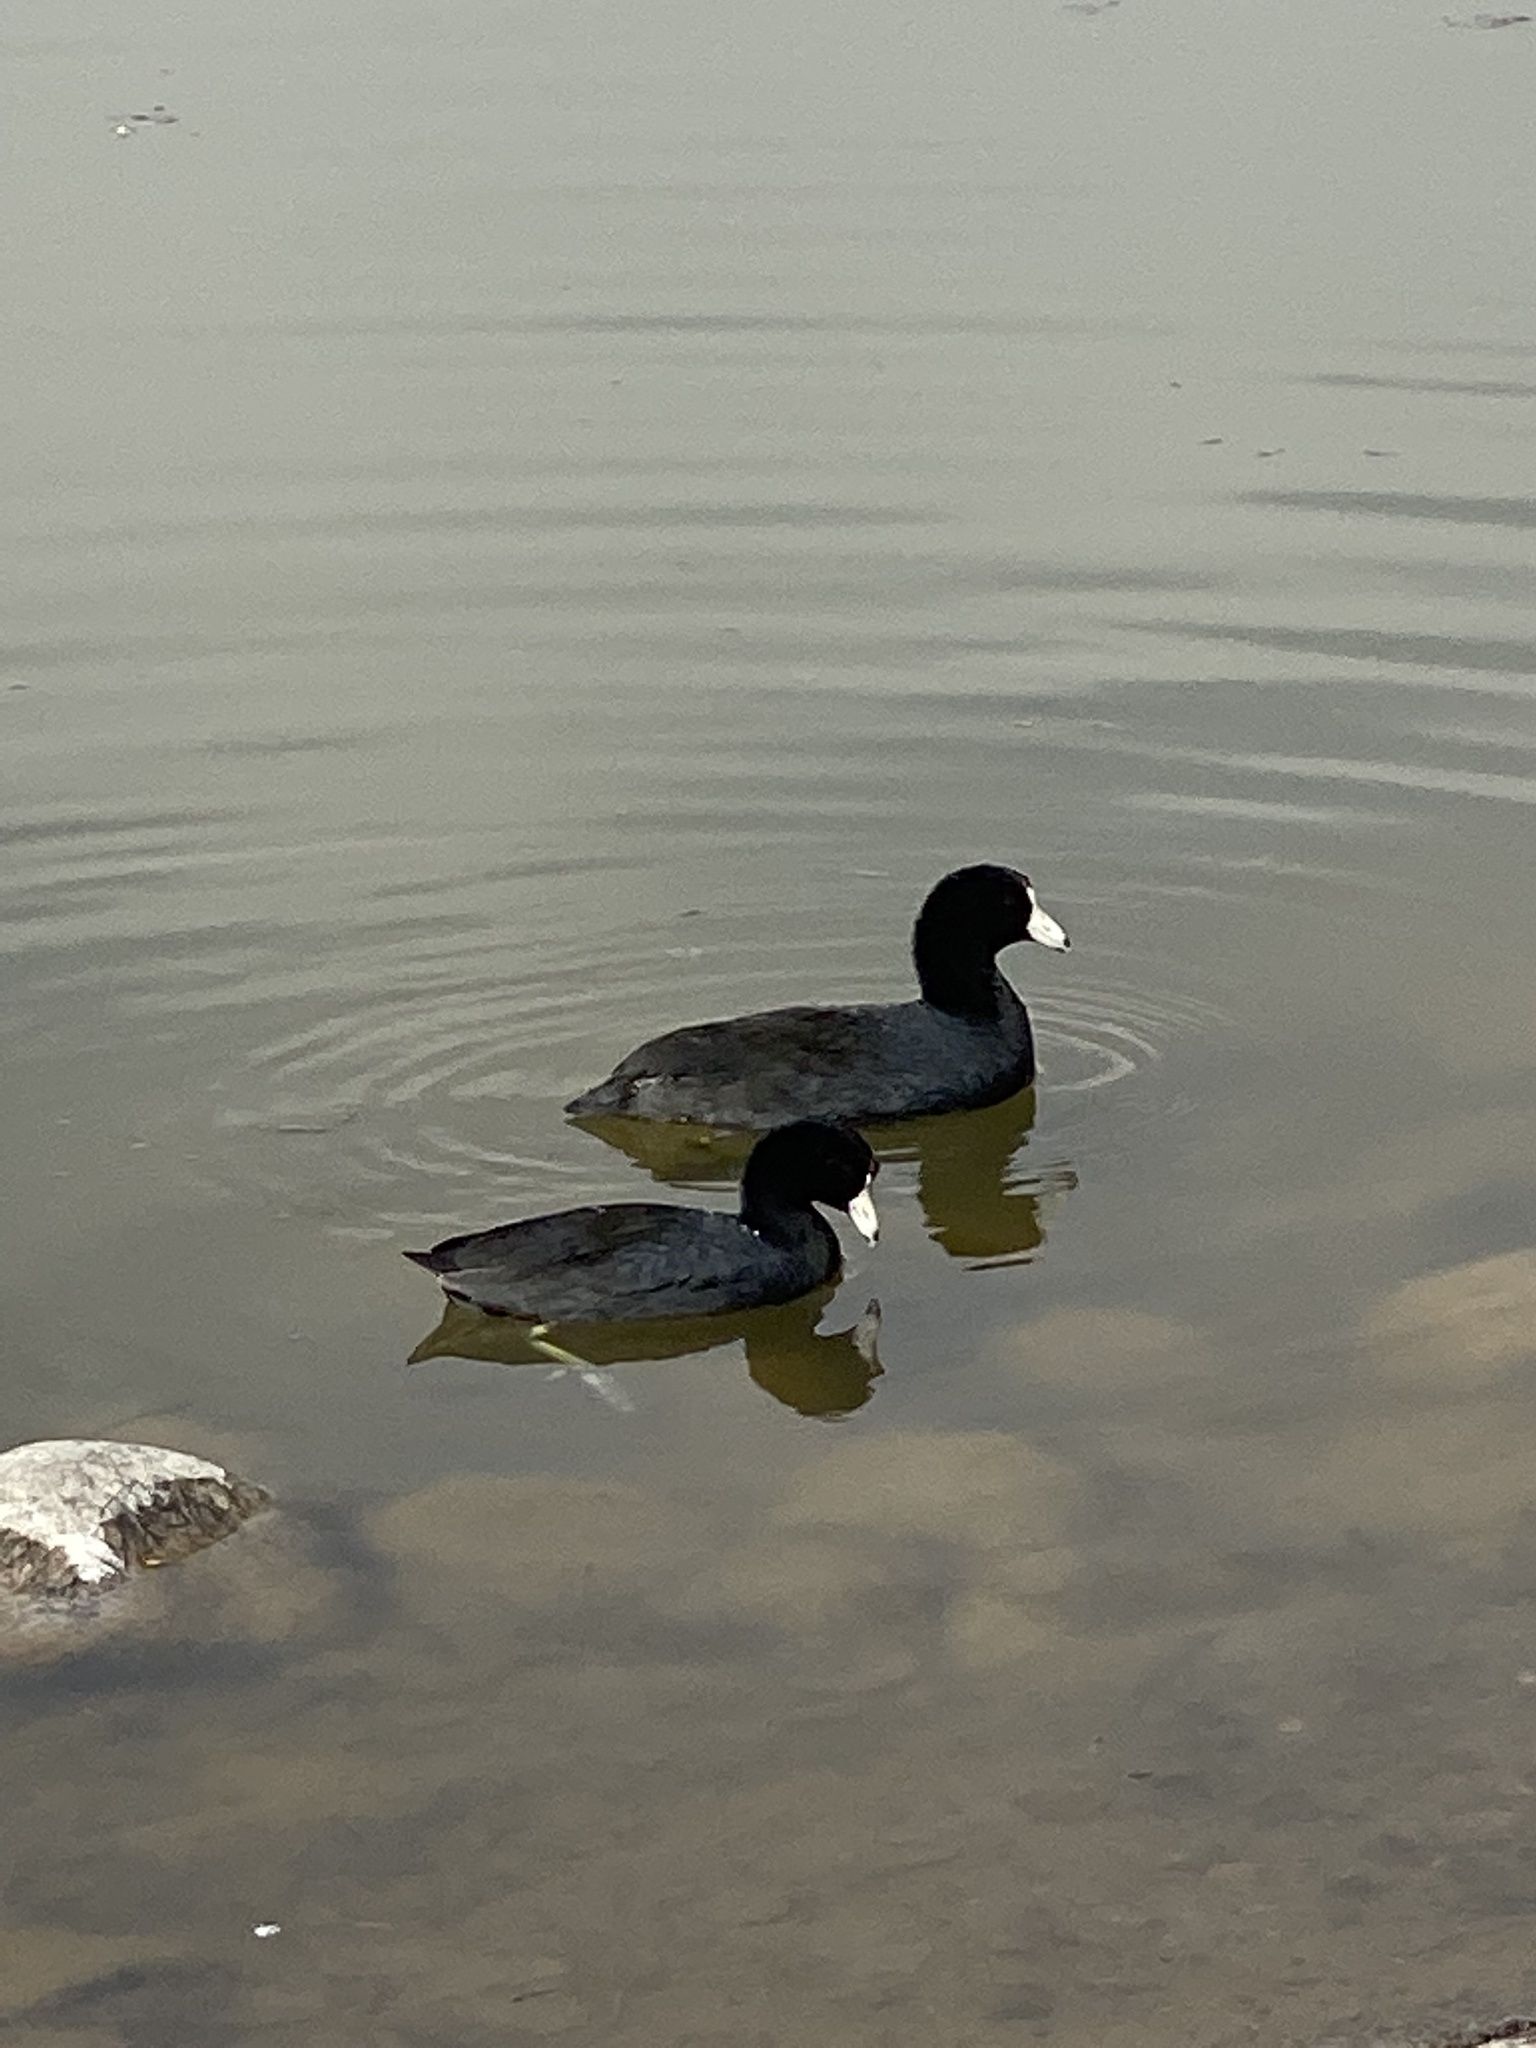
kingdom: Animalia
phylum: Chordata
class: Aves
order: Gruiformes
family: Rallidae
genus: Fulica
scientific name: Fulica americana
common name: American coot
